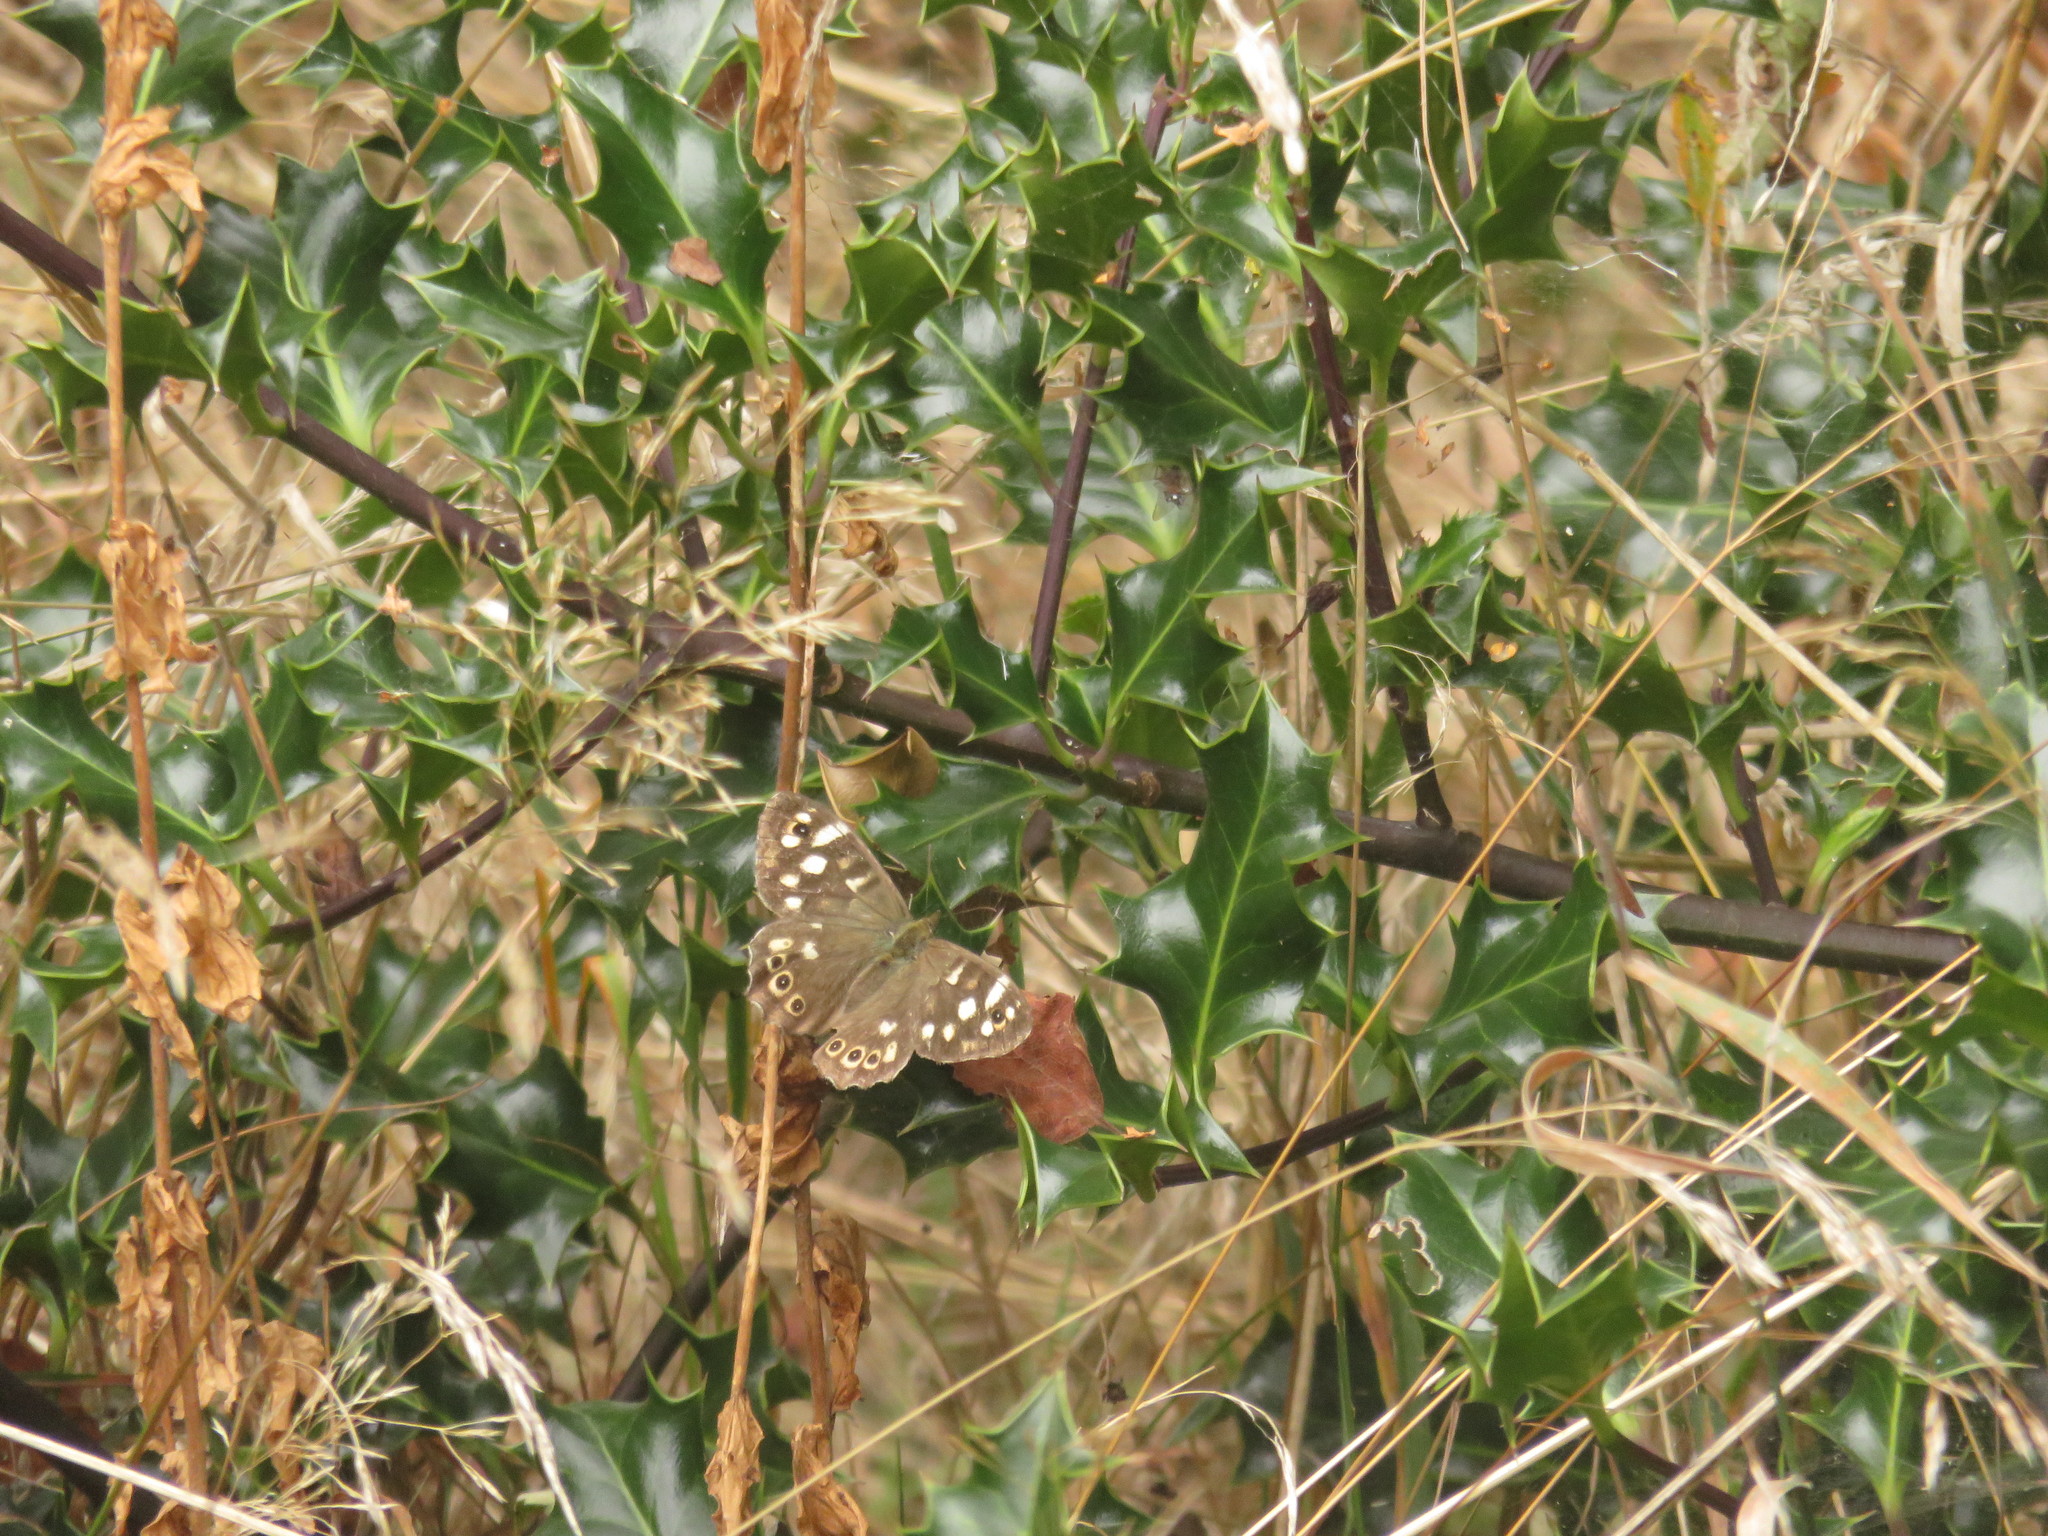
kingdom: Animalia
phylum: Arthropoda
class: Insecta
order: Lepidoptera
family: Nymphalidae
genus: Pararge
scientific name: Pararge aegeria
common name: Speckled wood
